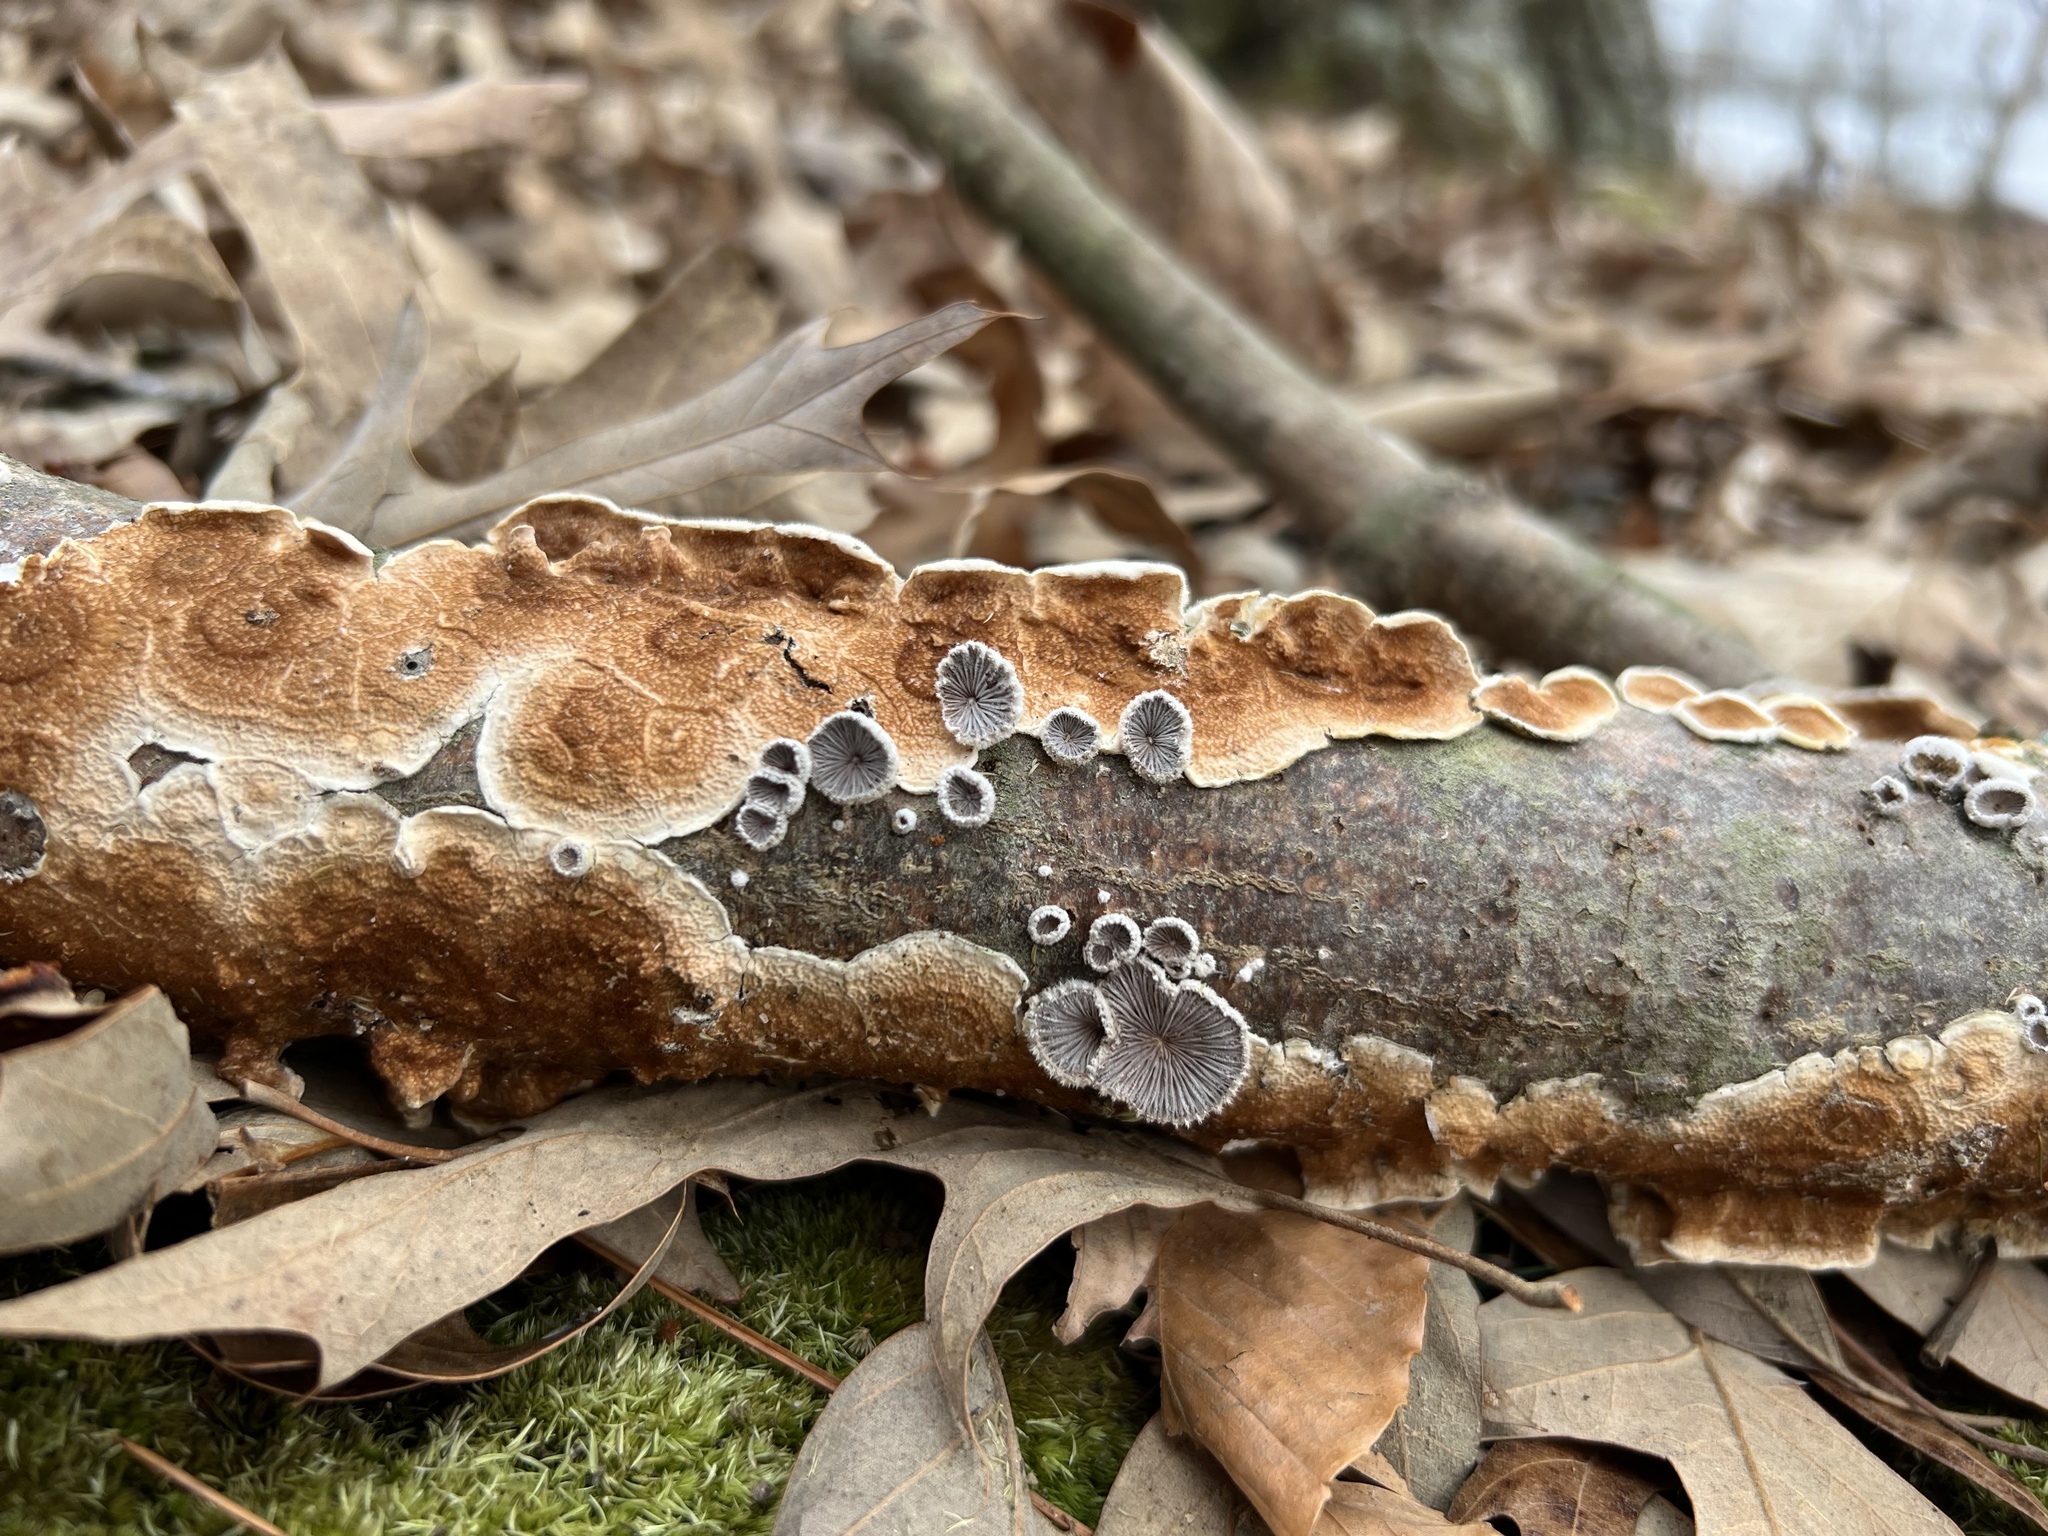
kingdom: Fungi
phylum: Basidiomycota
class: Agaricomycetes
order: Polyporales
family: Irpicaceae
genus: Byssomerulius
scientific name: Byssomerulius corium
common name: Netted crust
